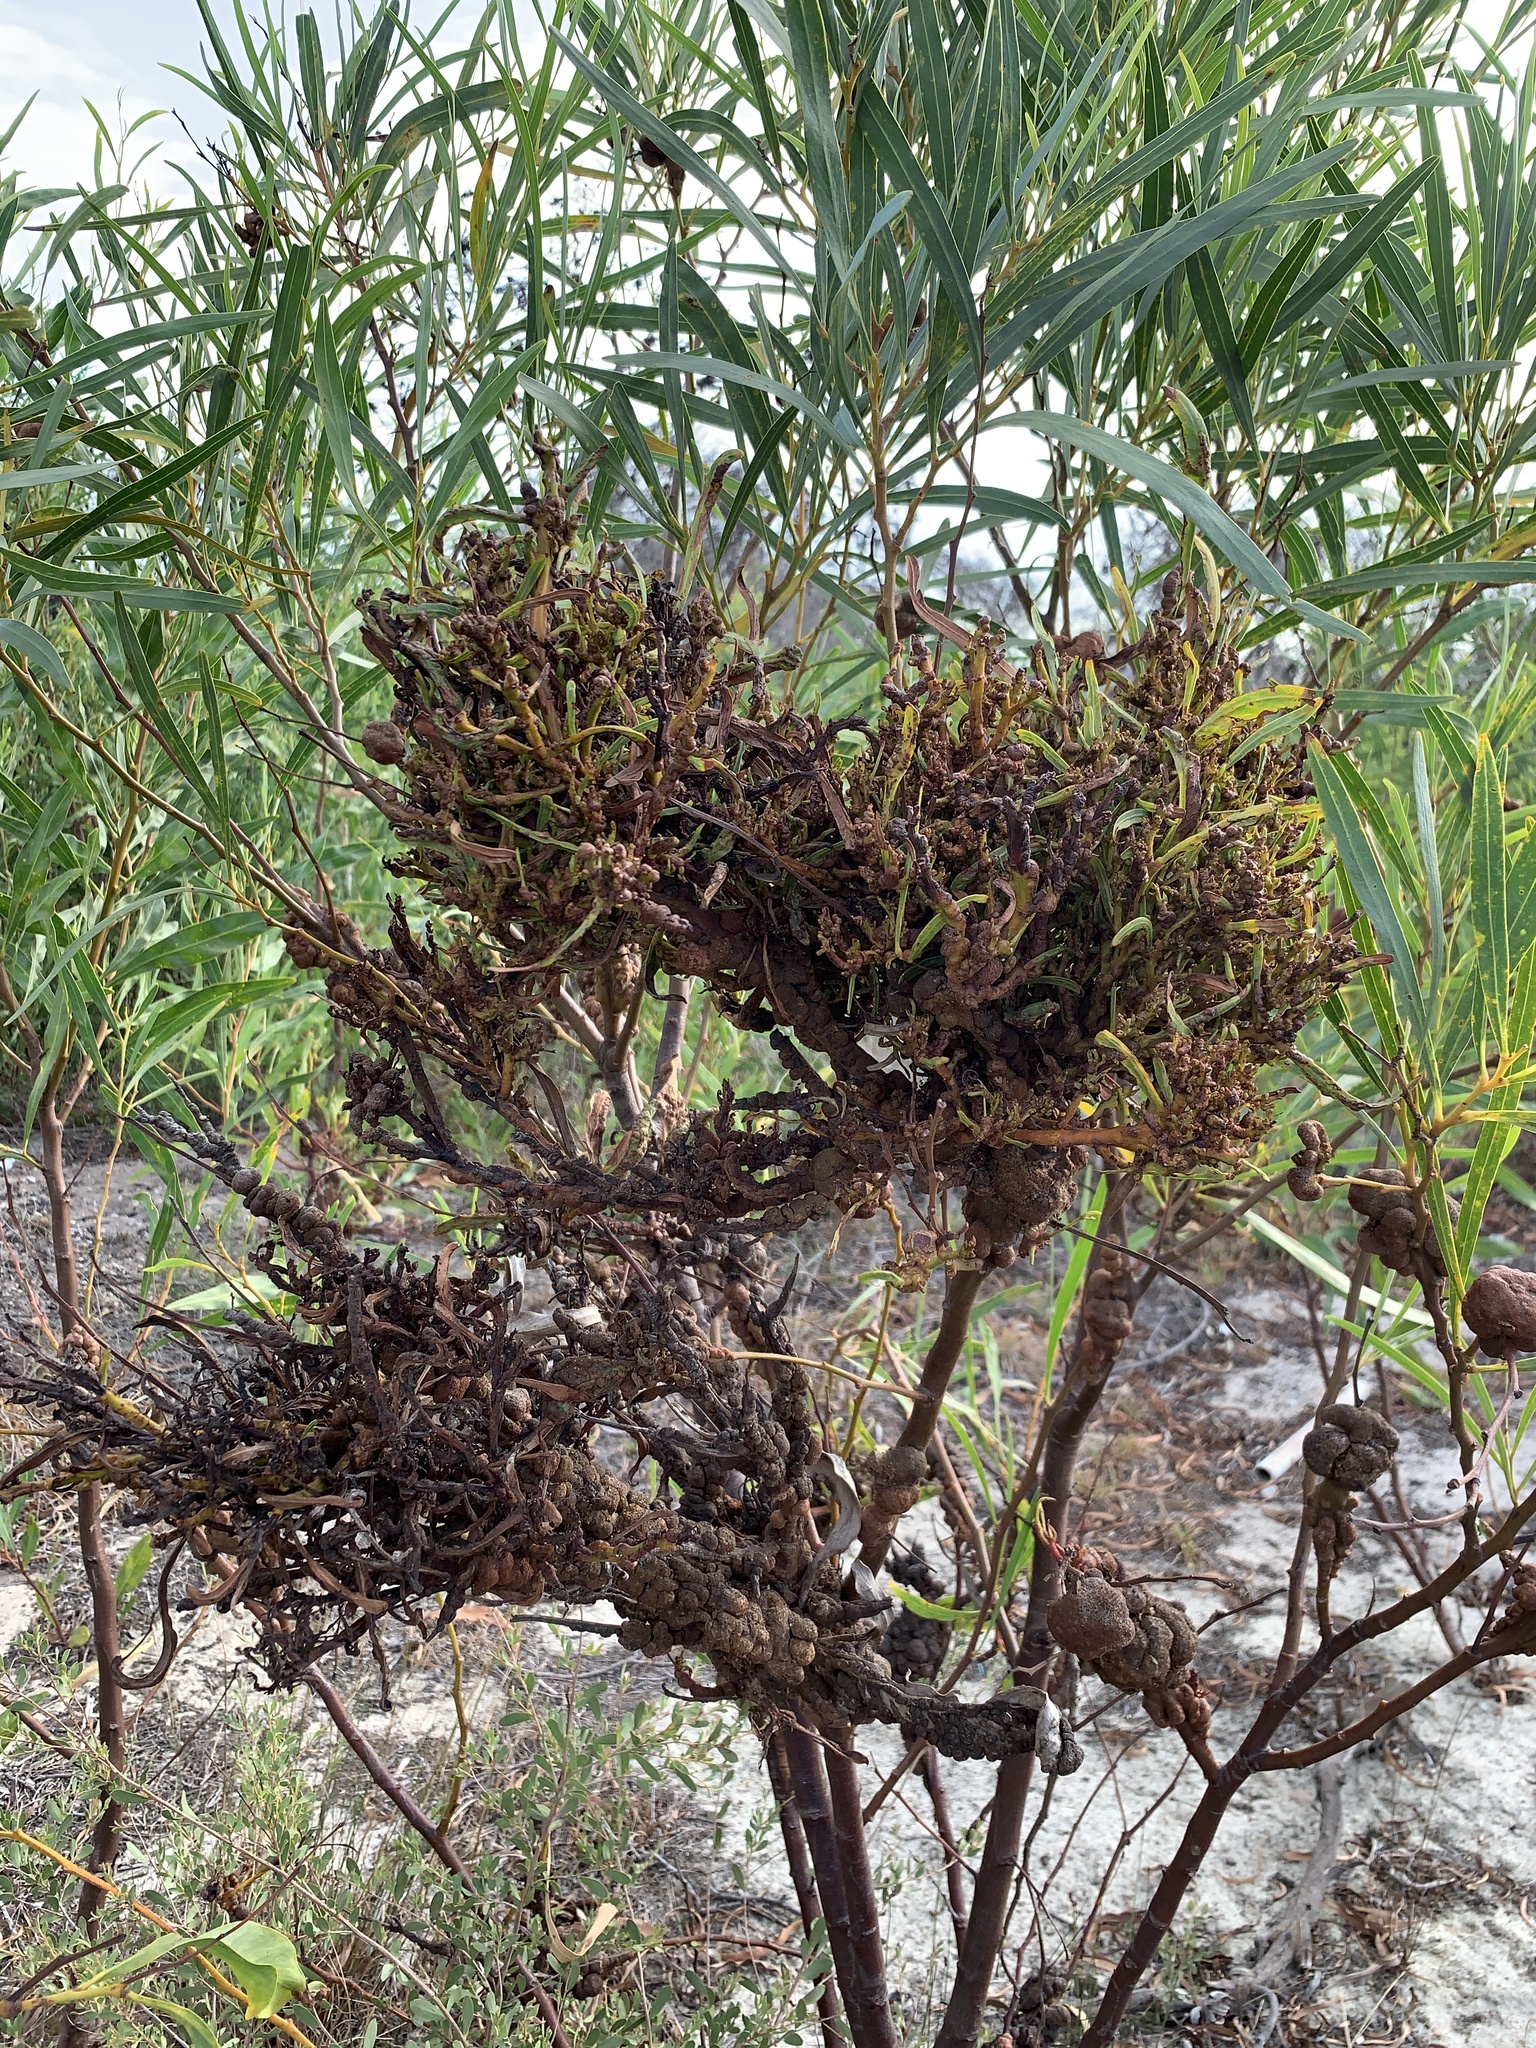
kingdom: Fungi
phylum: Basidiomycota
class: Pucciniomycetes
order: Pucciniales
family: Uromycladiaceae
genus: Uromycladium
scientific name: Uromycladium morrisii
